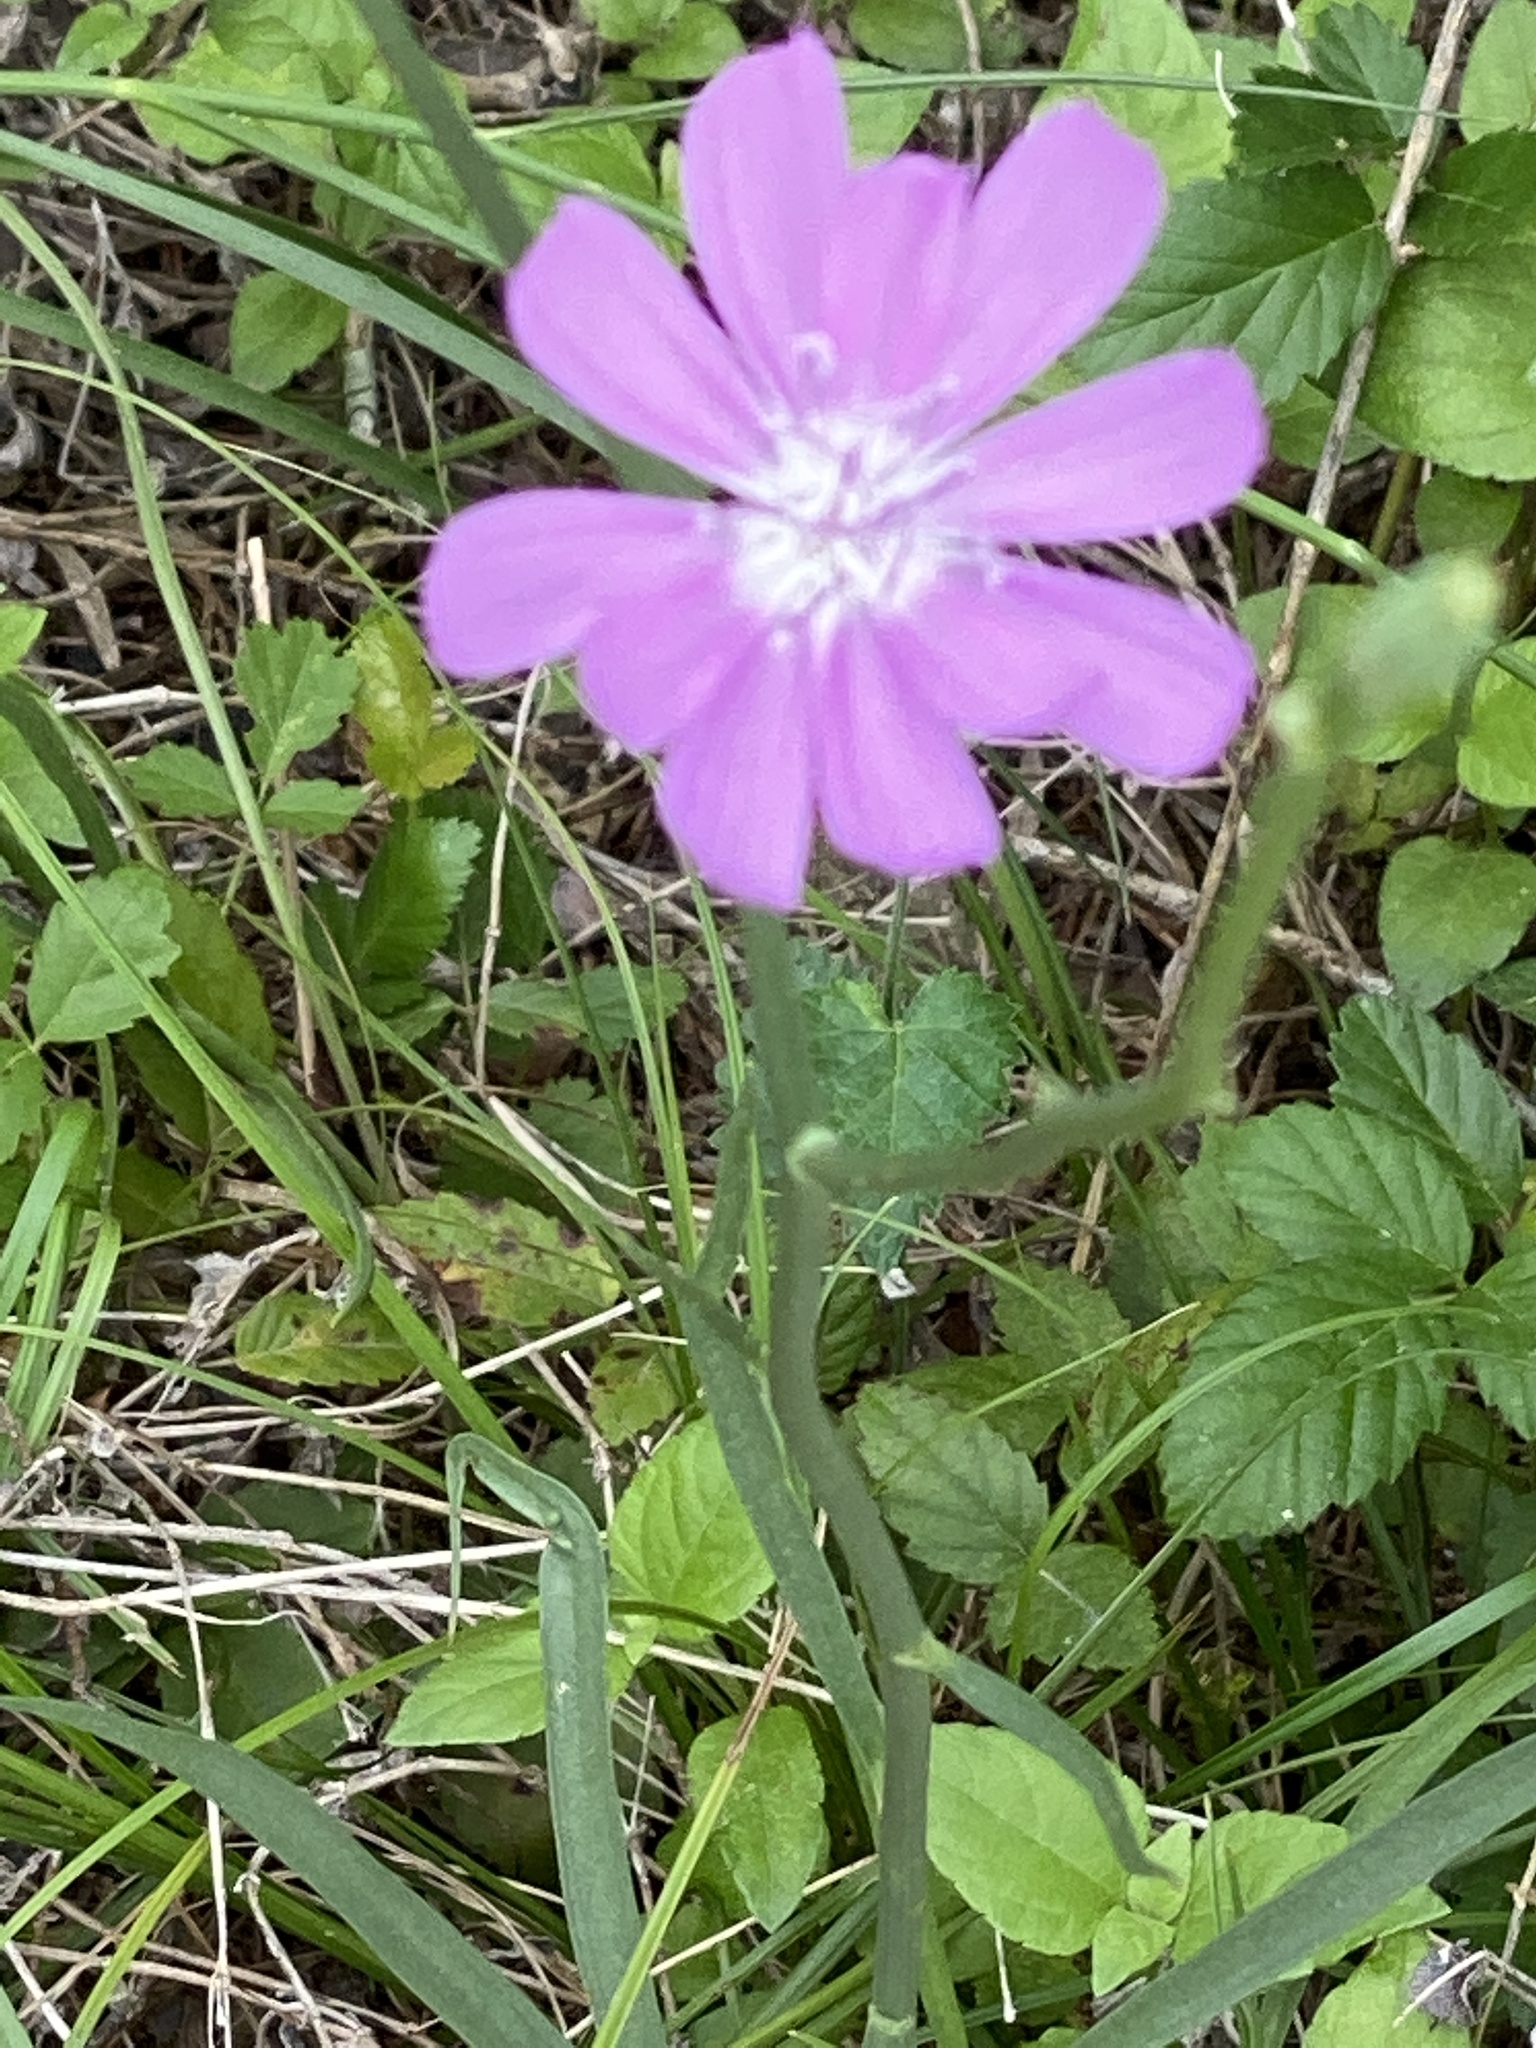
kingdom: Plantae
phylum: Tracheophyta
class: Magnoliopsida
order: Asterales
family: Asteraceae
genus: Lygodesmia
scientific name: Lygodesmia texana
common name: Texas skeleton-plant
